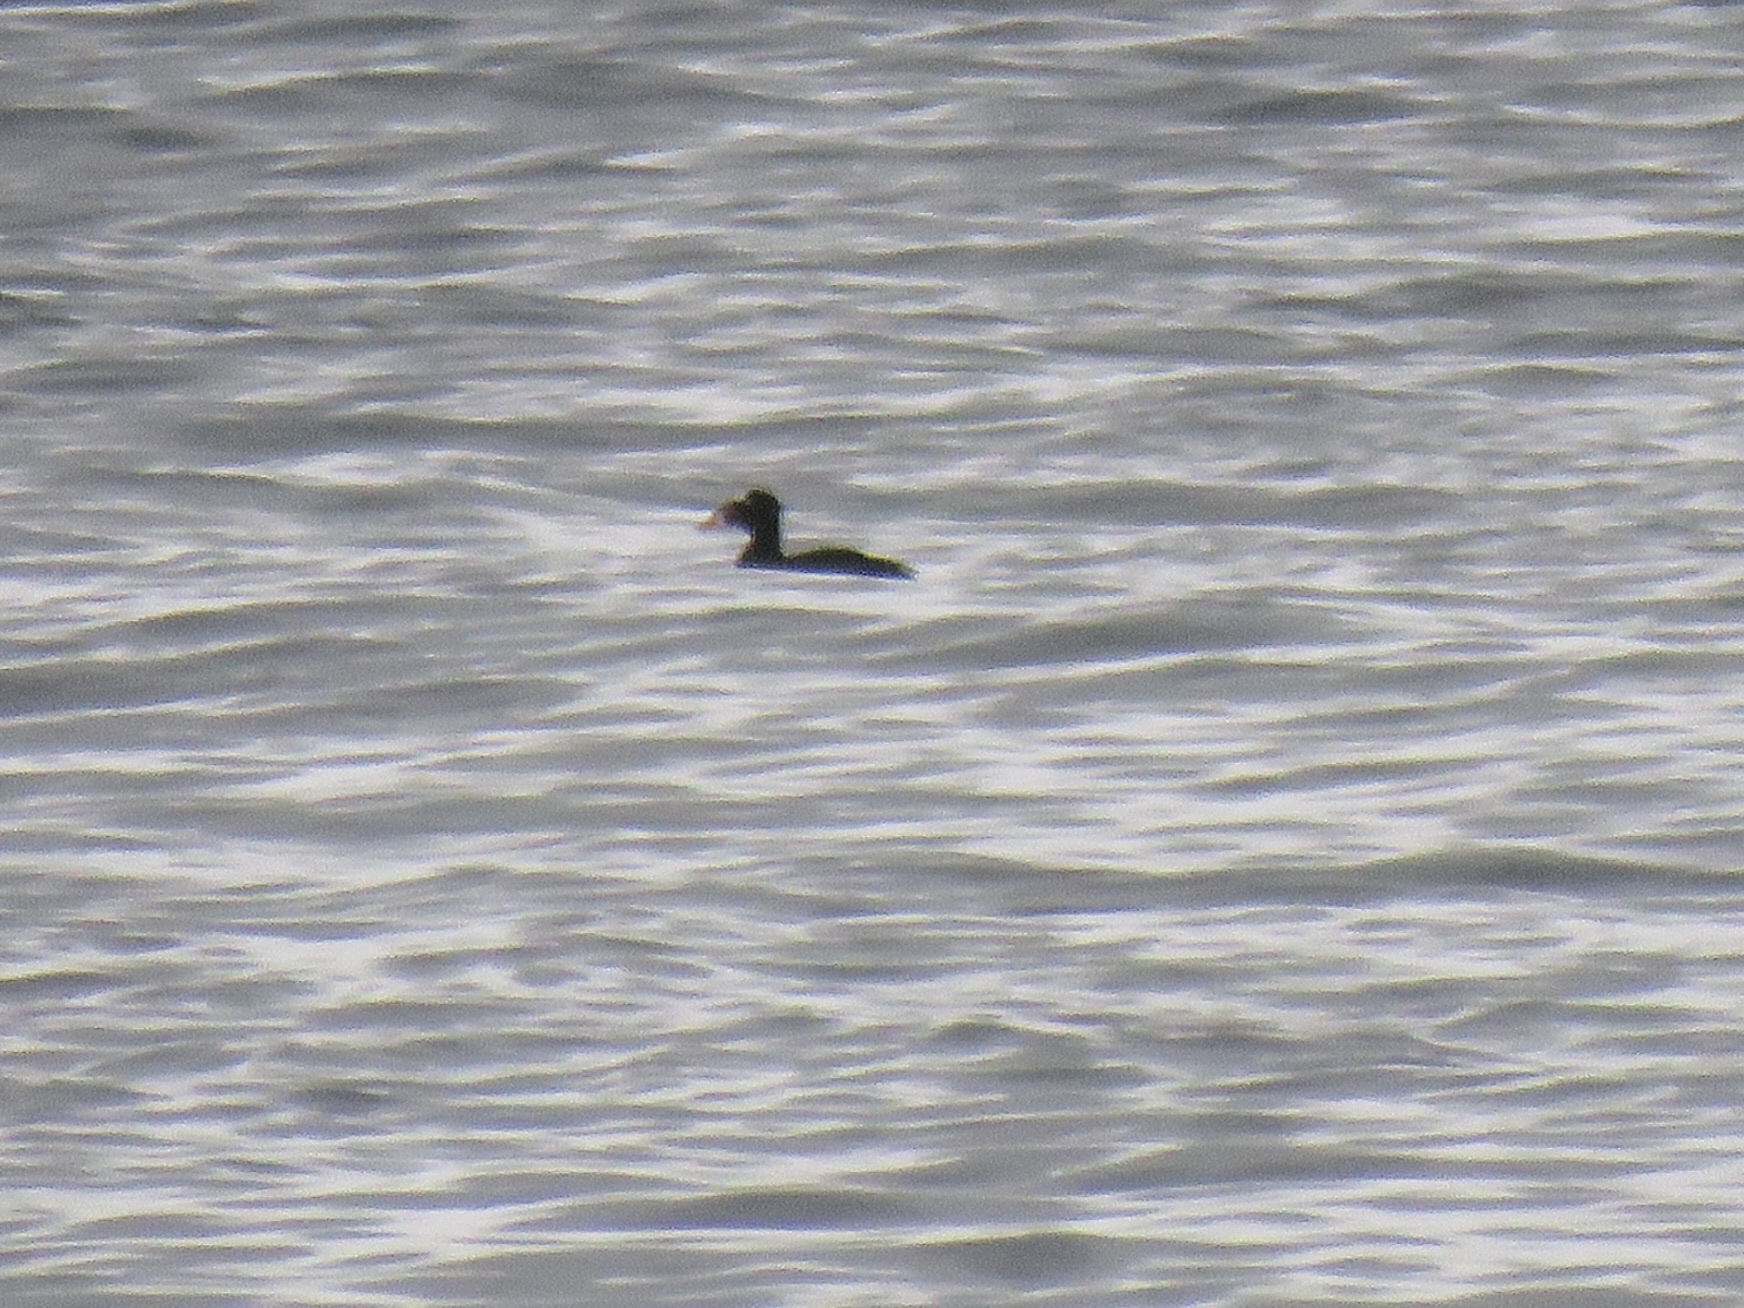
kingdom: Animalia
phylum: Chordata
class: Aves
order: Anseriformes
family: Anatidae
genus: Melanitta
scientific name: Melanitta perspicillata
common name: Surf scoter
